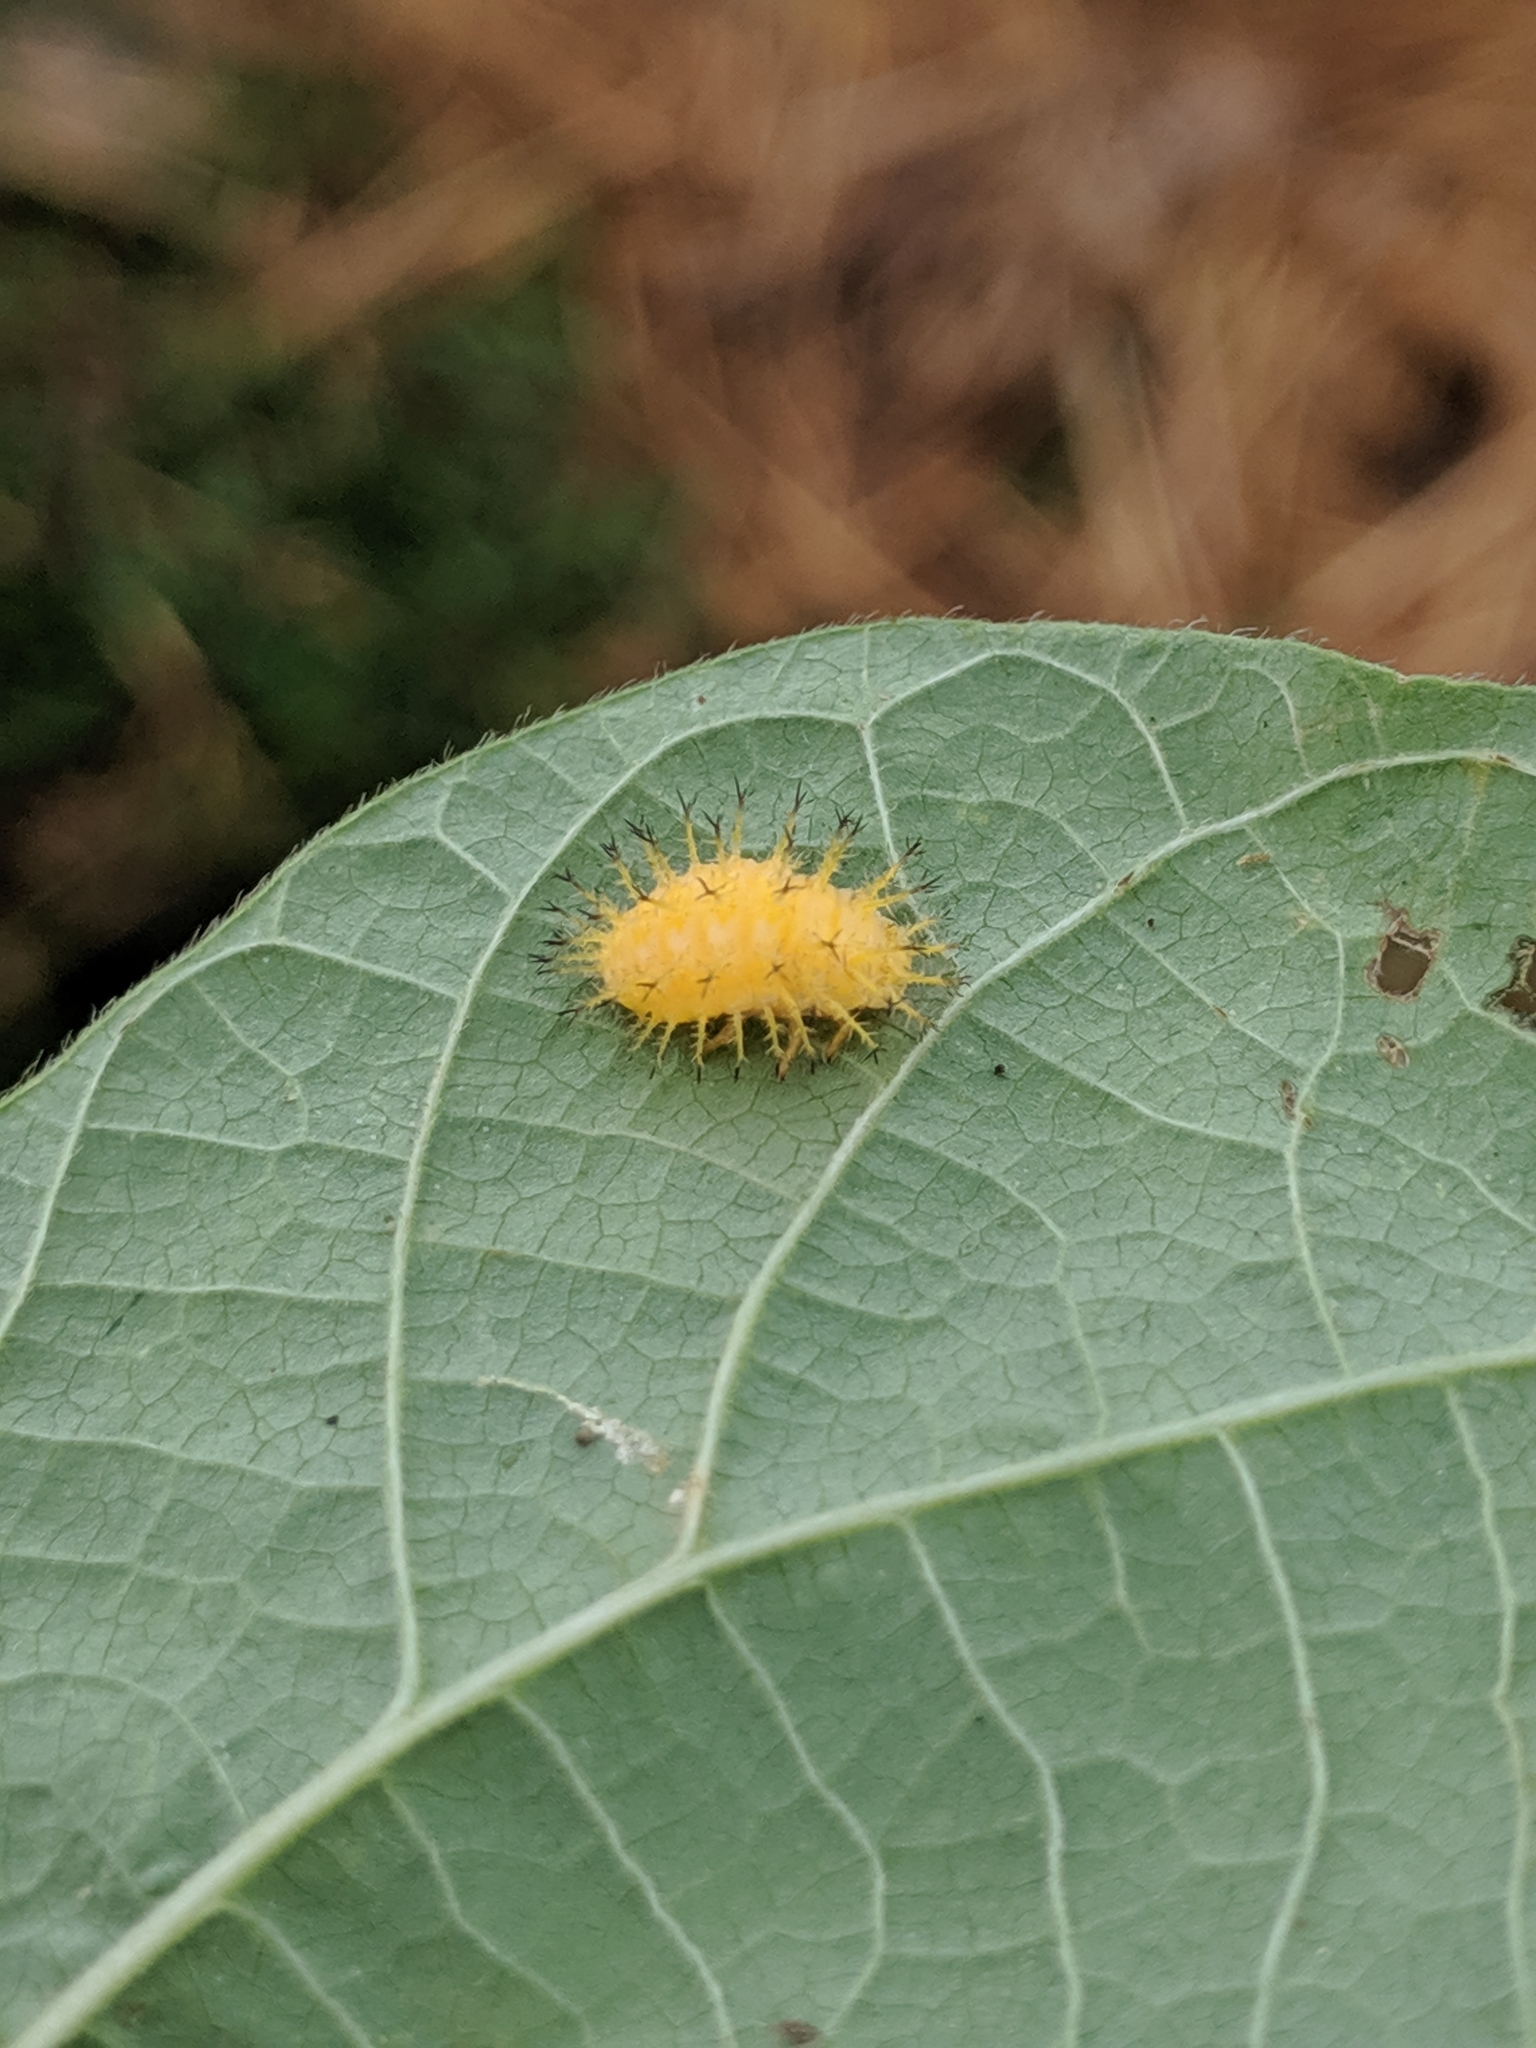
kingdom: Animalia
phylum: Arthropoda
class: Insecta
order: Coleoptera
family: Coccinellidae
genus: Epilachna
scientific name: Epilachna borealis
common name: Squash beetle
